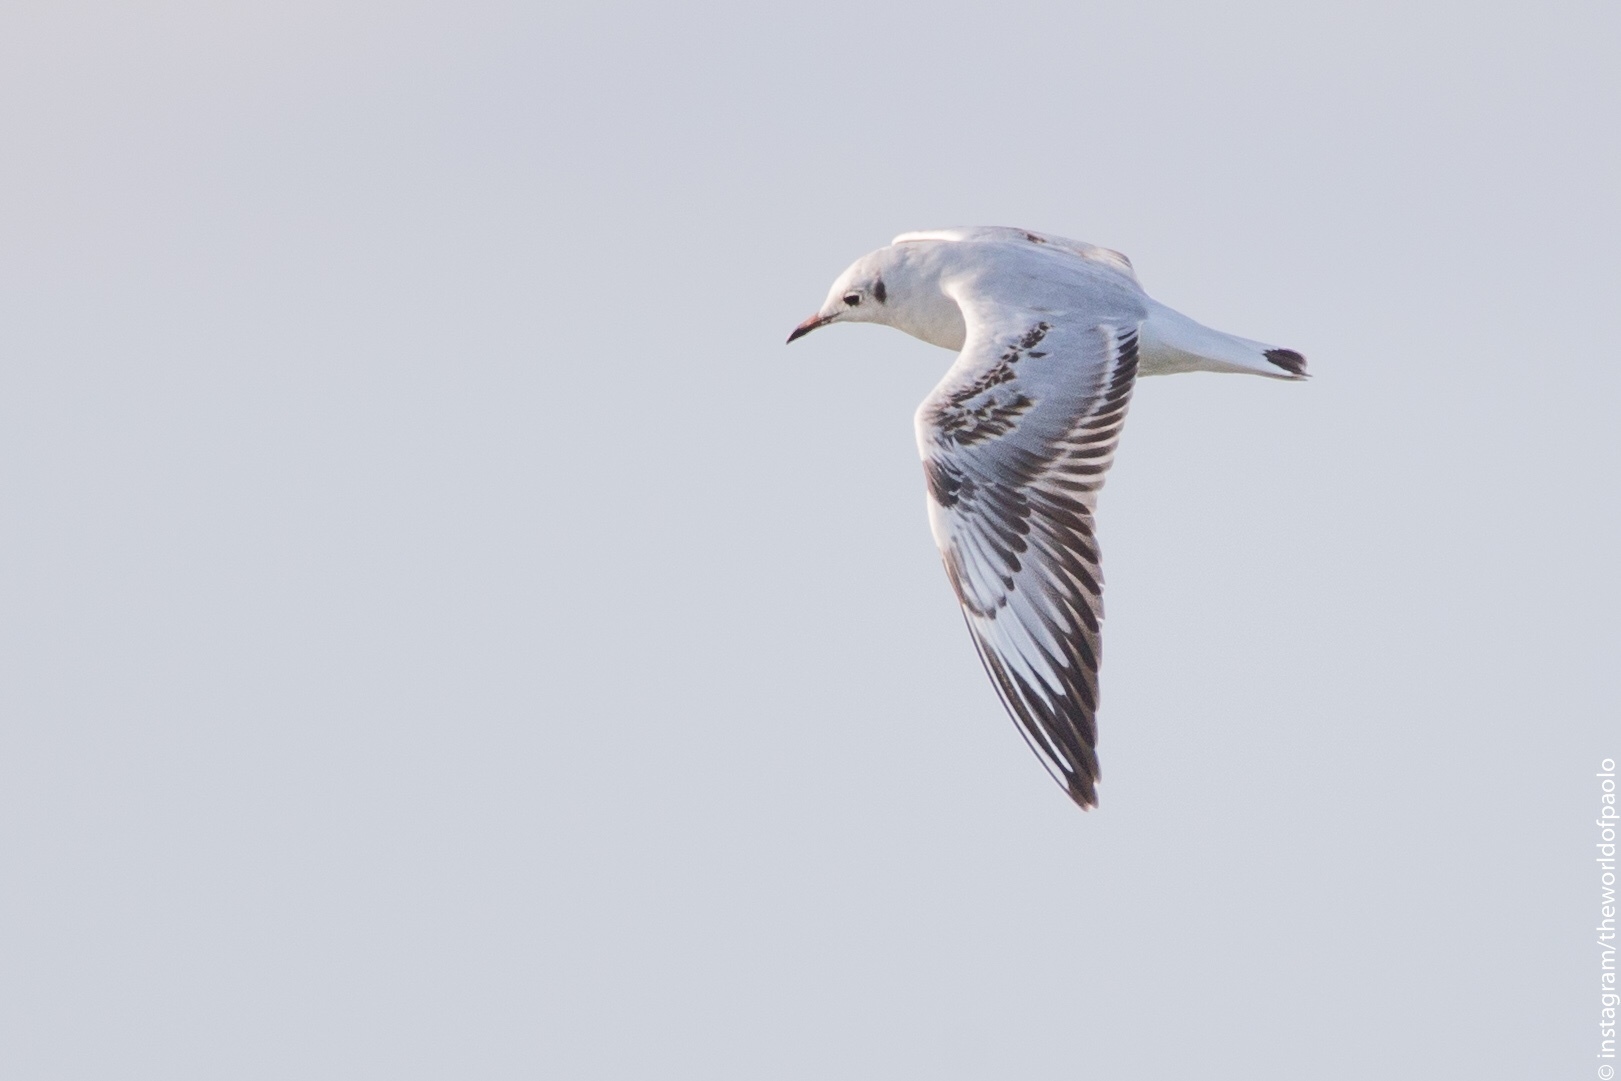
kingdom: Animalia
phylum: Chordata
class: Aves
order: Charadriiformes
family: Laridae
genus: Chroicocephalus
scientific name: Chroicocephalus ridibundus
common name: Black-headed gull
